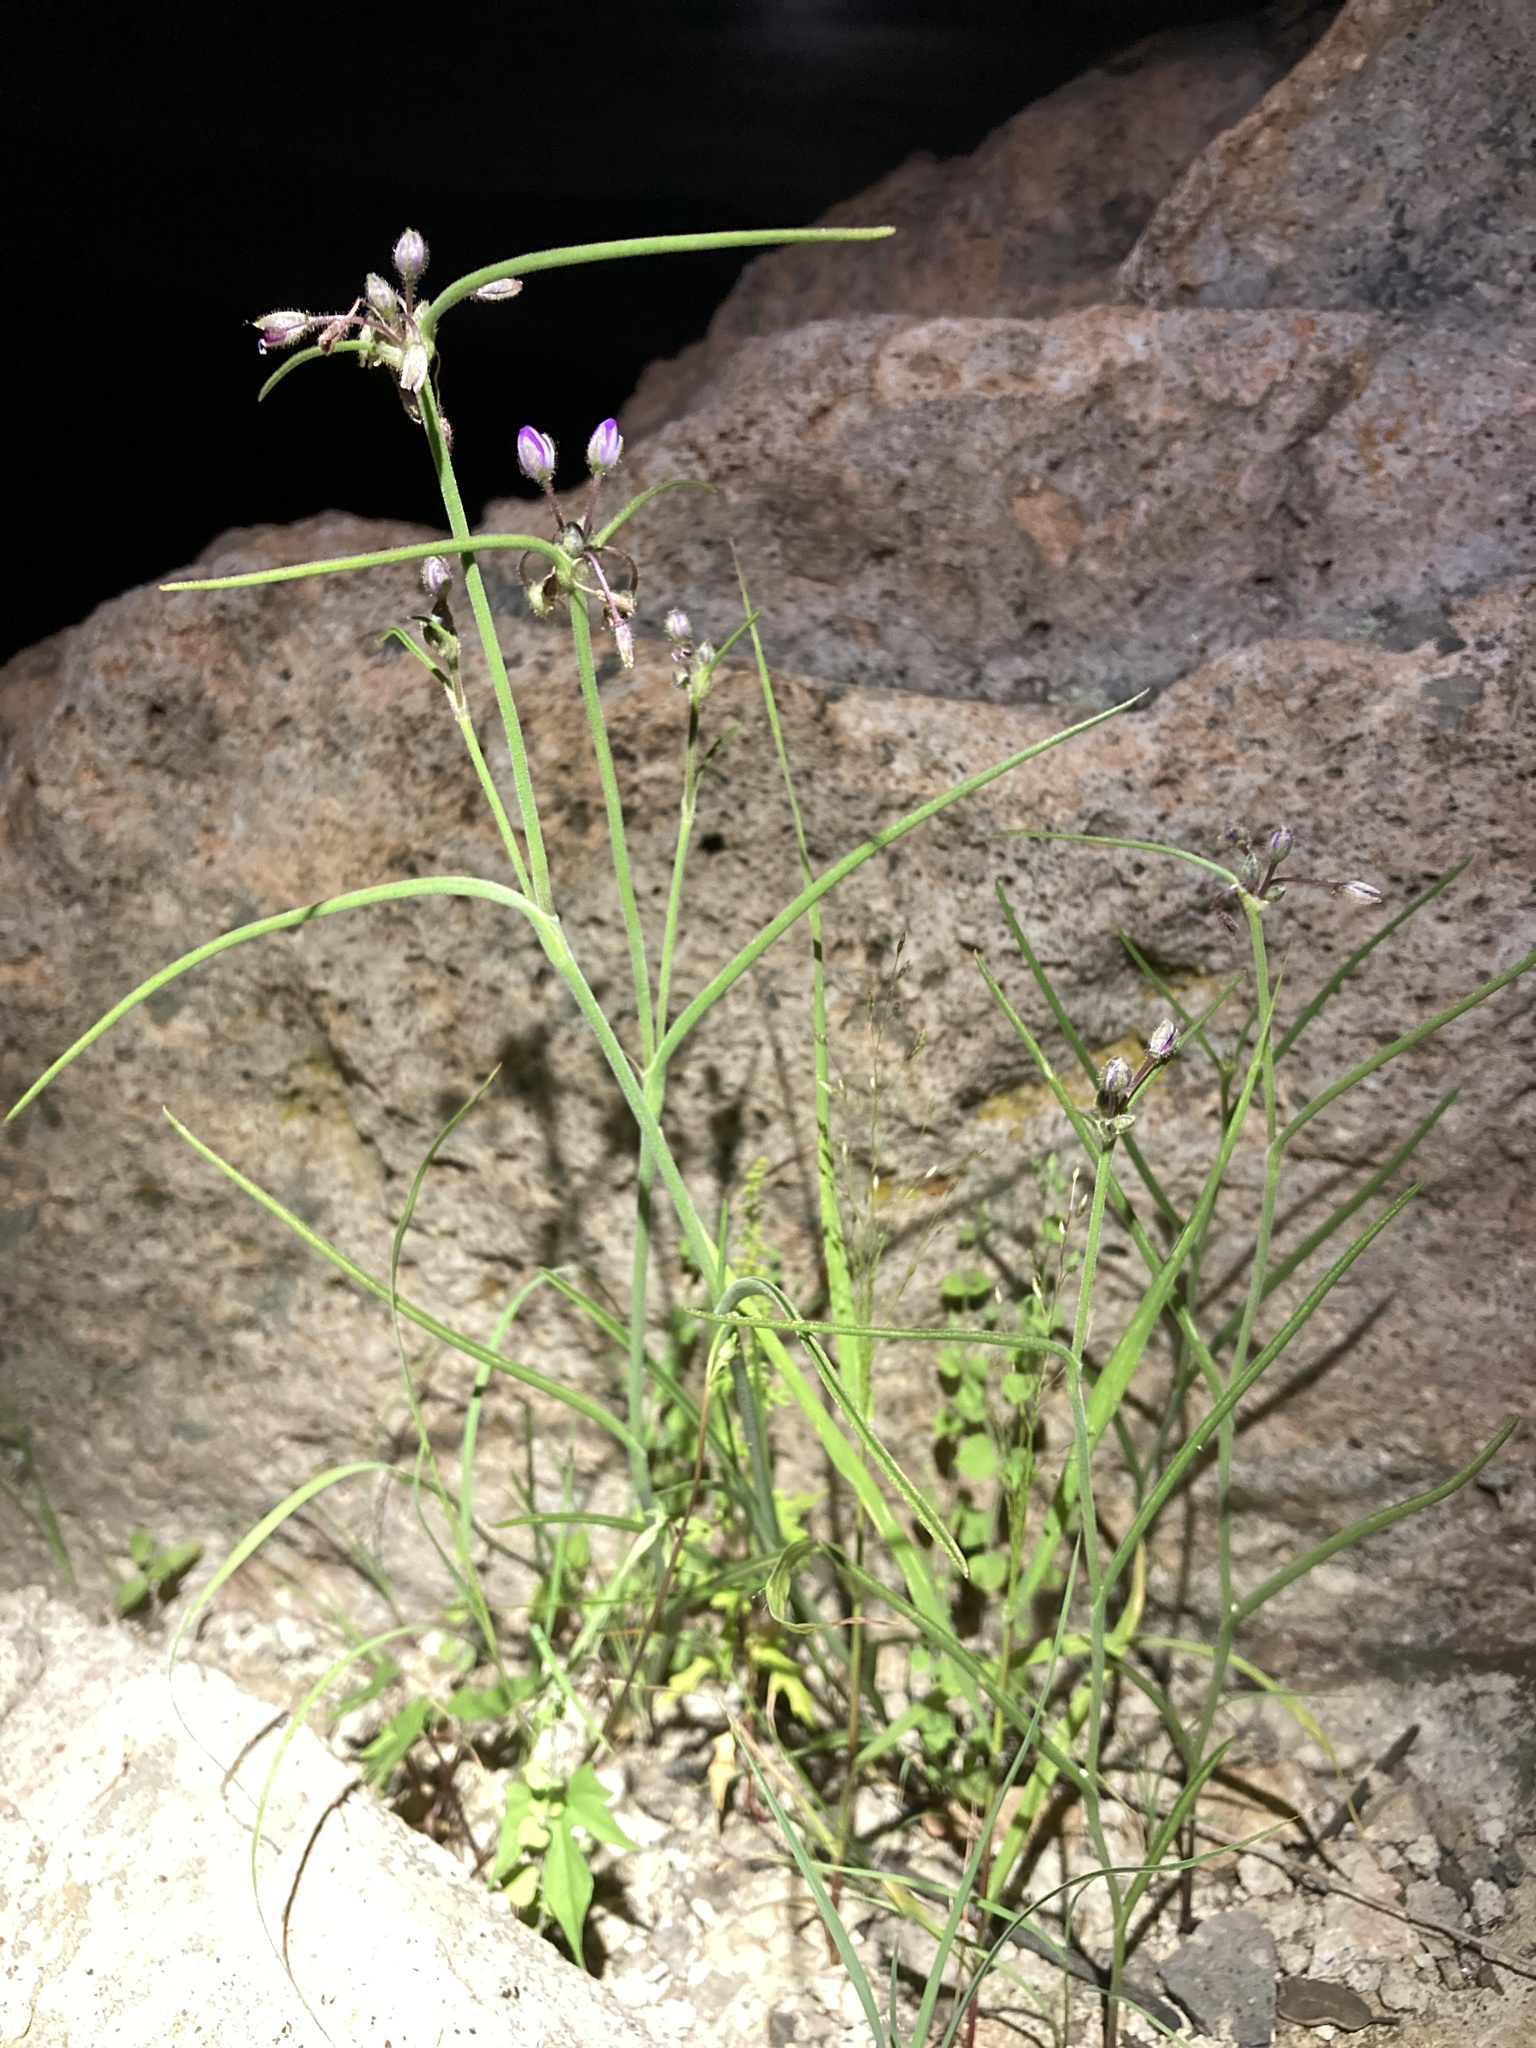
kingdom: Plantae
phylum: Tracheophyta
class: Liliopsida
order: Commelinales
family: Commelinaceae
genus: Tradescantia
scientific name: Tradescantia pinetorum
